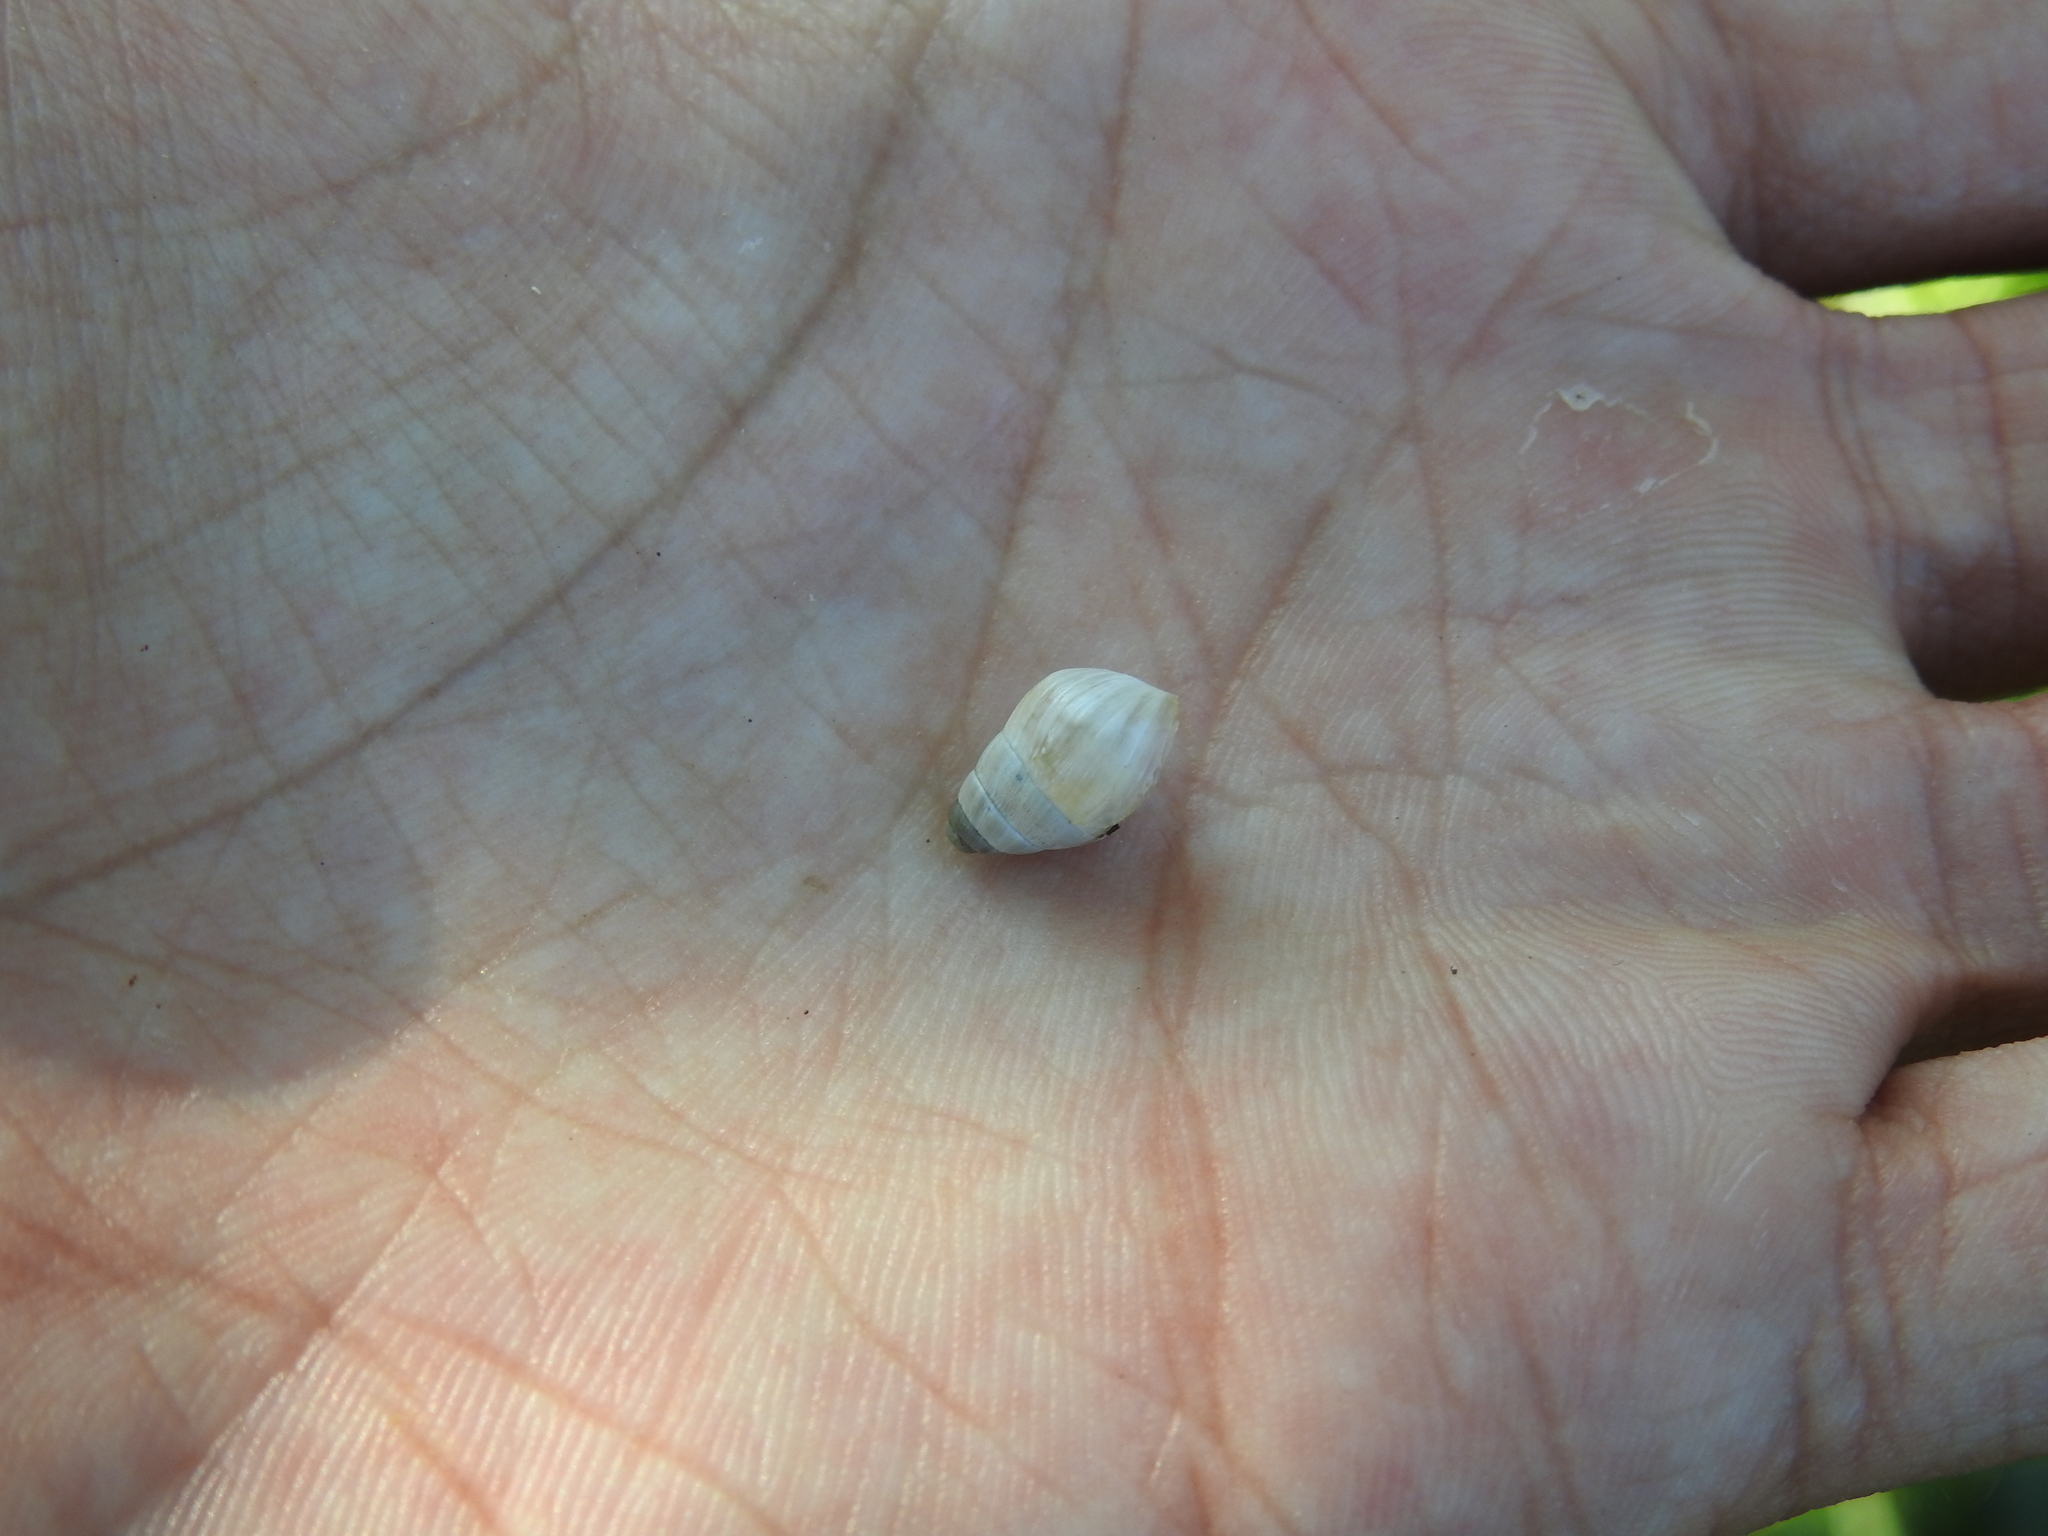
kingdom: Animalia
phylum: Mollusca
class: Gastropoda
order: Stylommatophora
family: Enidae
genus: Zebrina
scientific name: Zebrina detrita
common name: Large bulin
